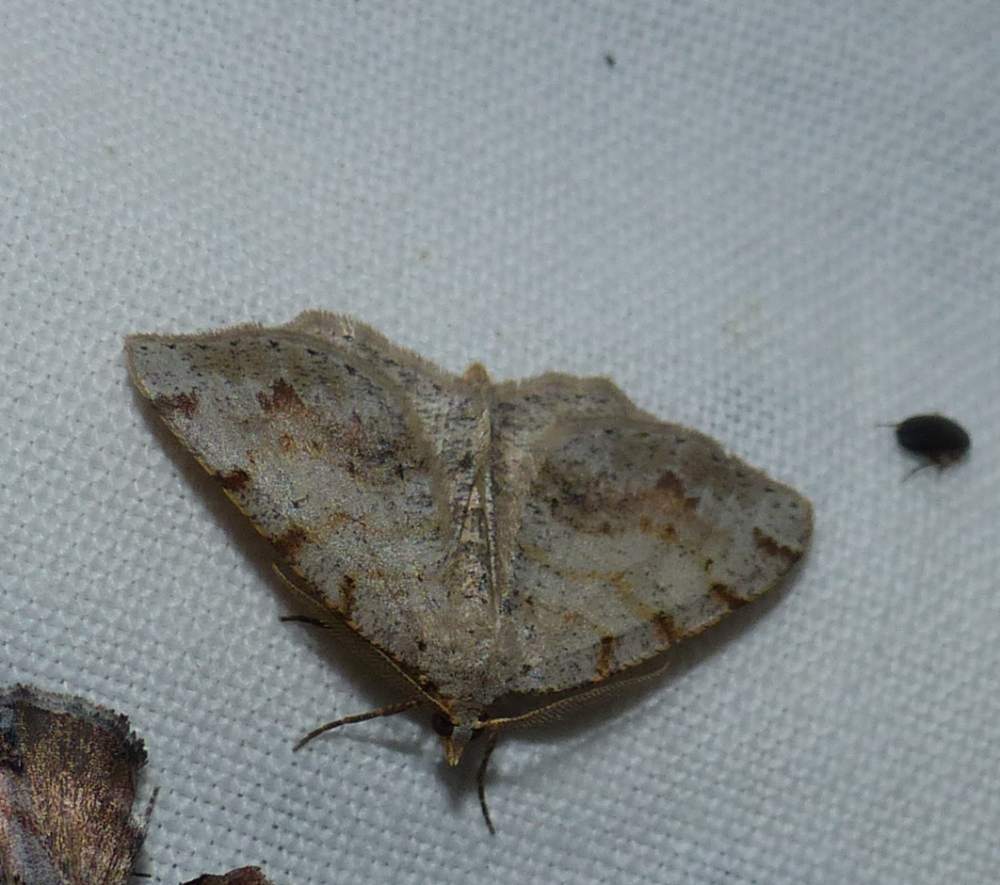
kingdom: Animalia
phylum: Arthropoda
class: Insecta
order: Lepidoptera
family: Geometridae
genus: Macaria
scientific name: Macaria exauspicata
